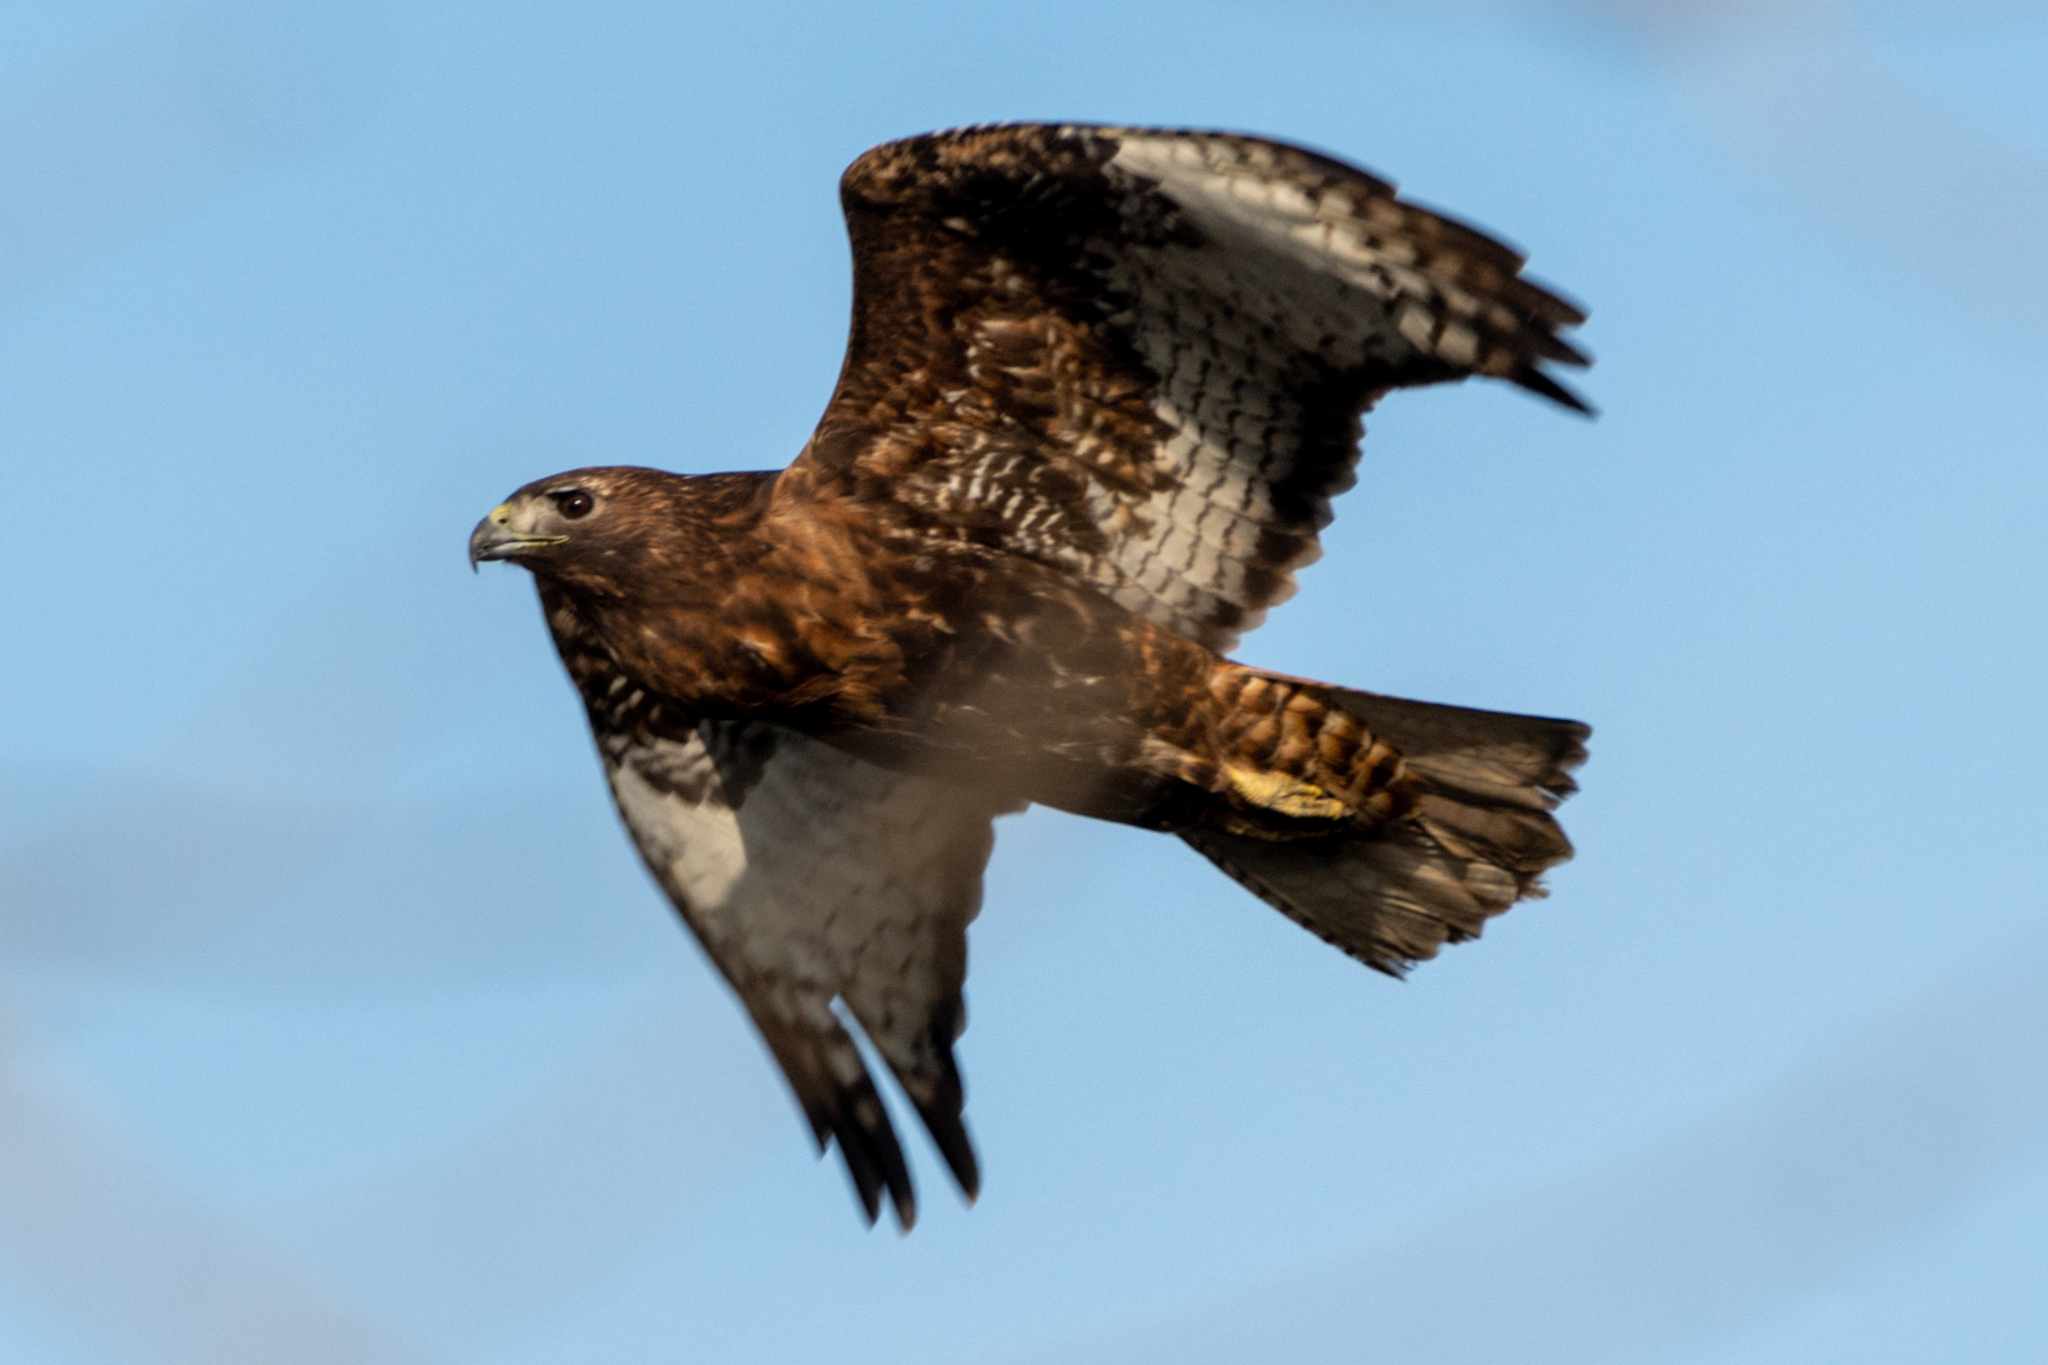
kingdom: Animalia
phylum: Chordata
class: Aves
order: Accipitriformes
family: Accipitridae
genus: Buteo
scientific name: Buteo jamaicensis
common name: Red-tailed hawk
